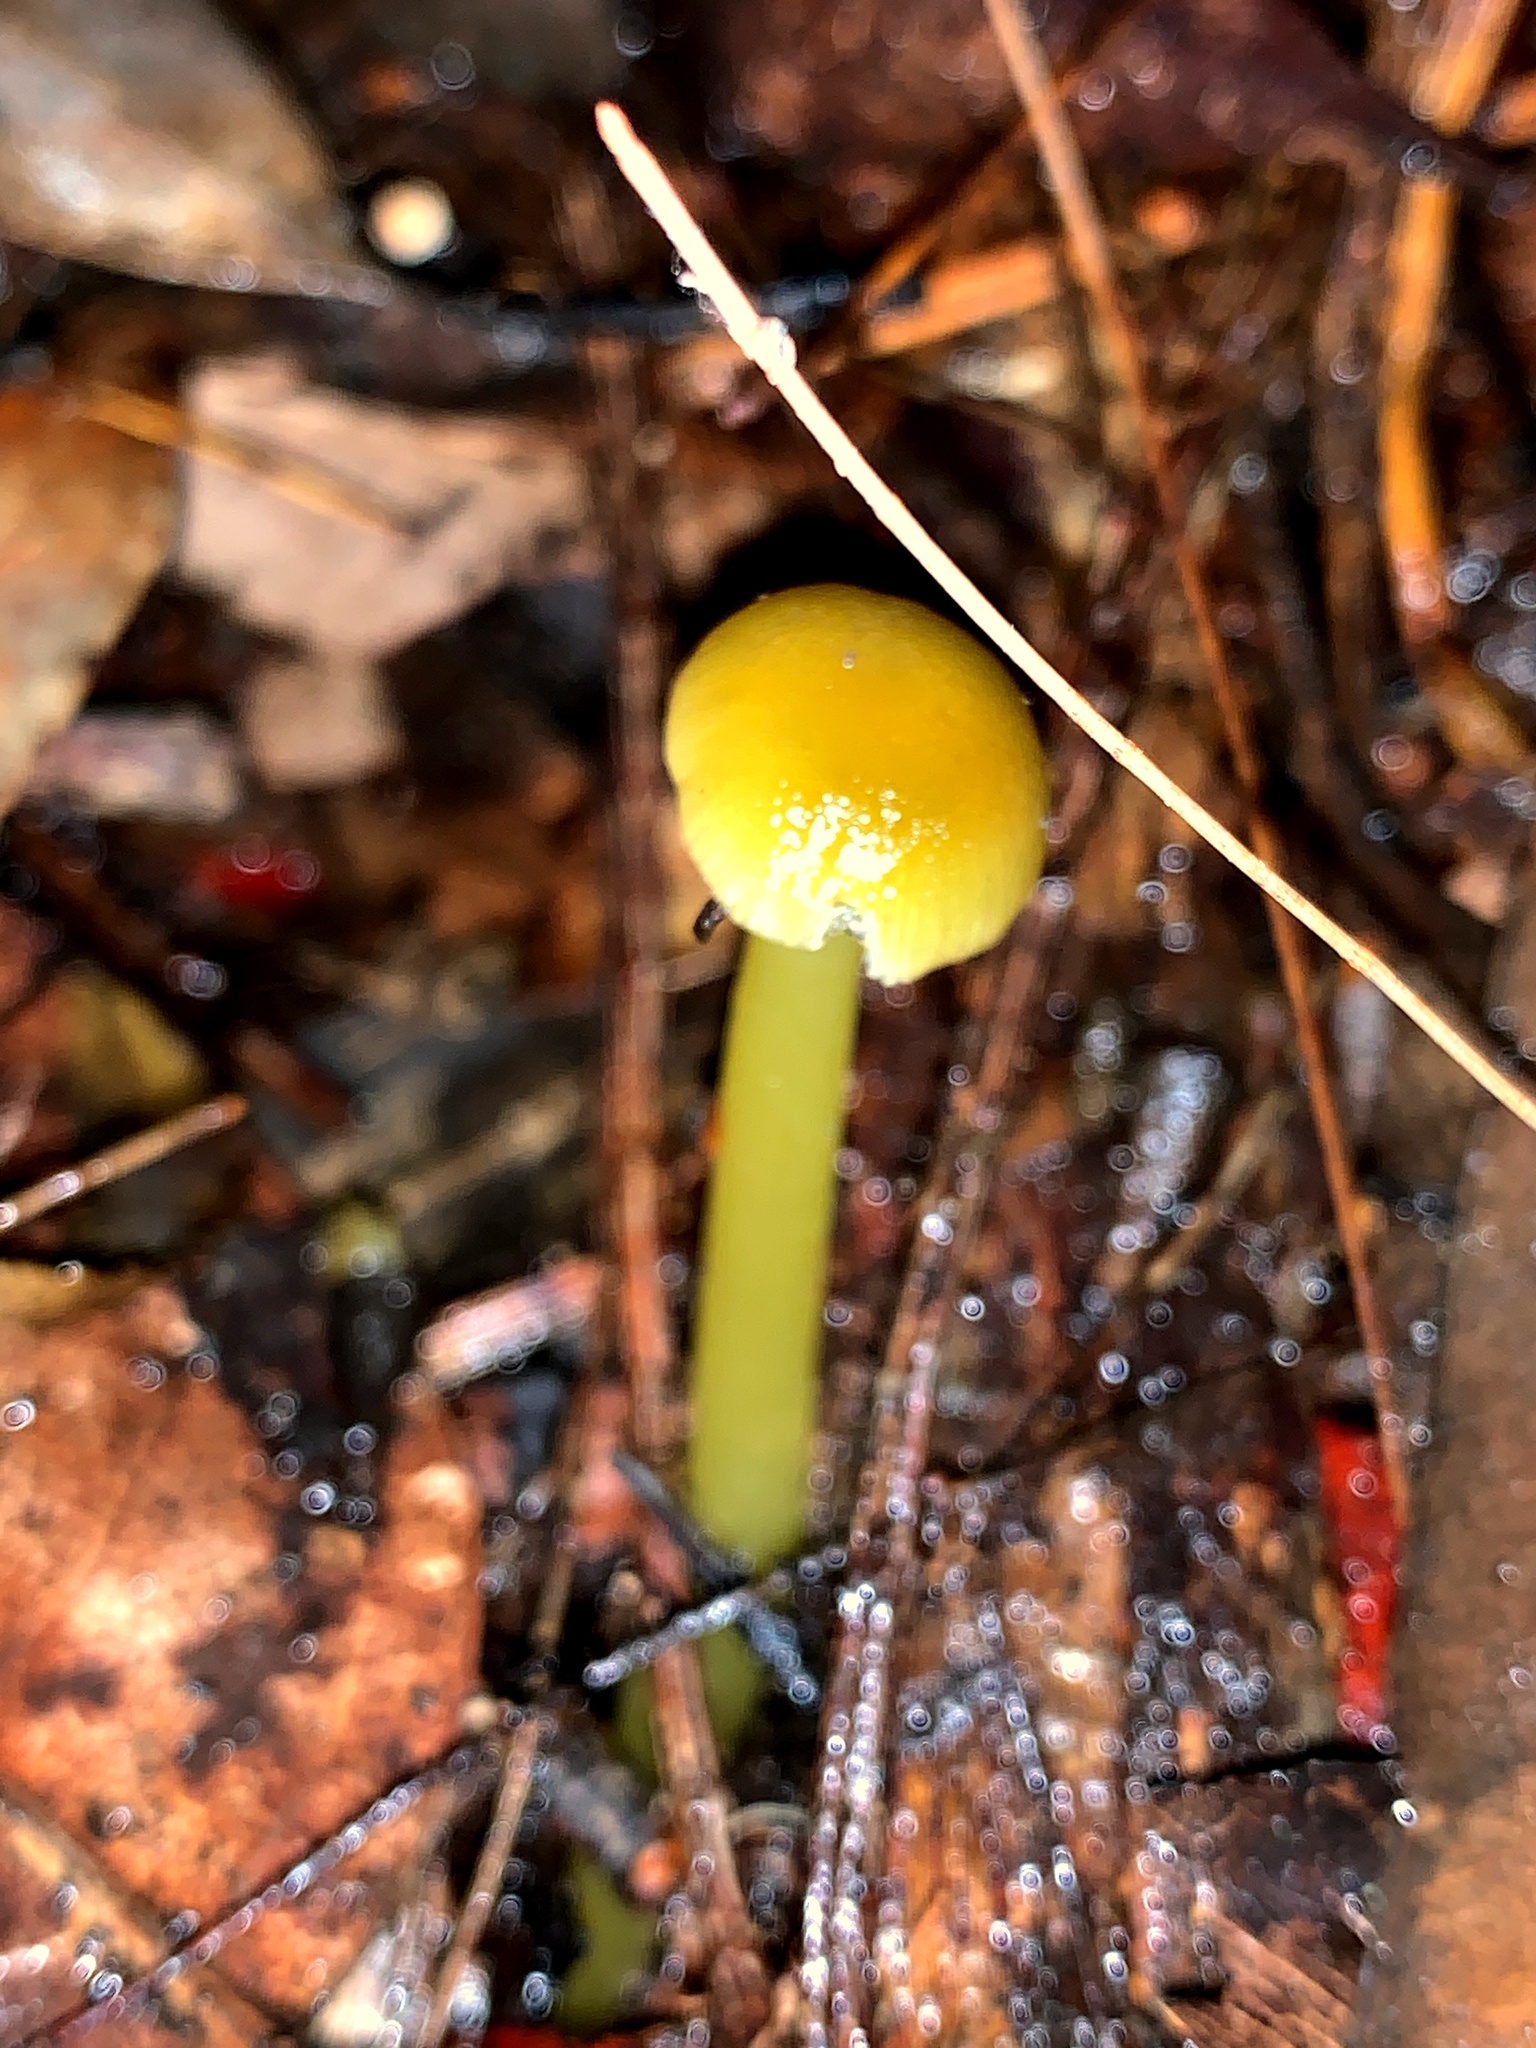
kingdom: Fungi
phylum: Basidiomycota
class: Agaricomycetes
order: Agaricales
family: Hygrophoraceae
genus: Gloioxanthomyces
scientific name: Gloioxanthomyces
